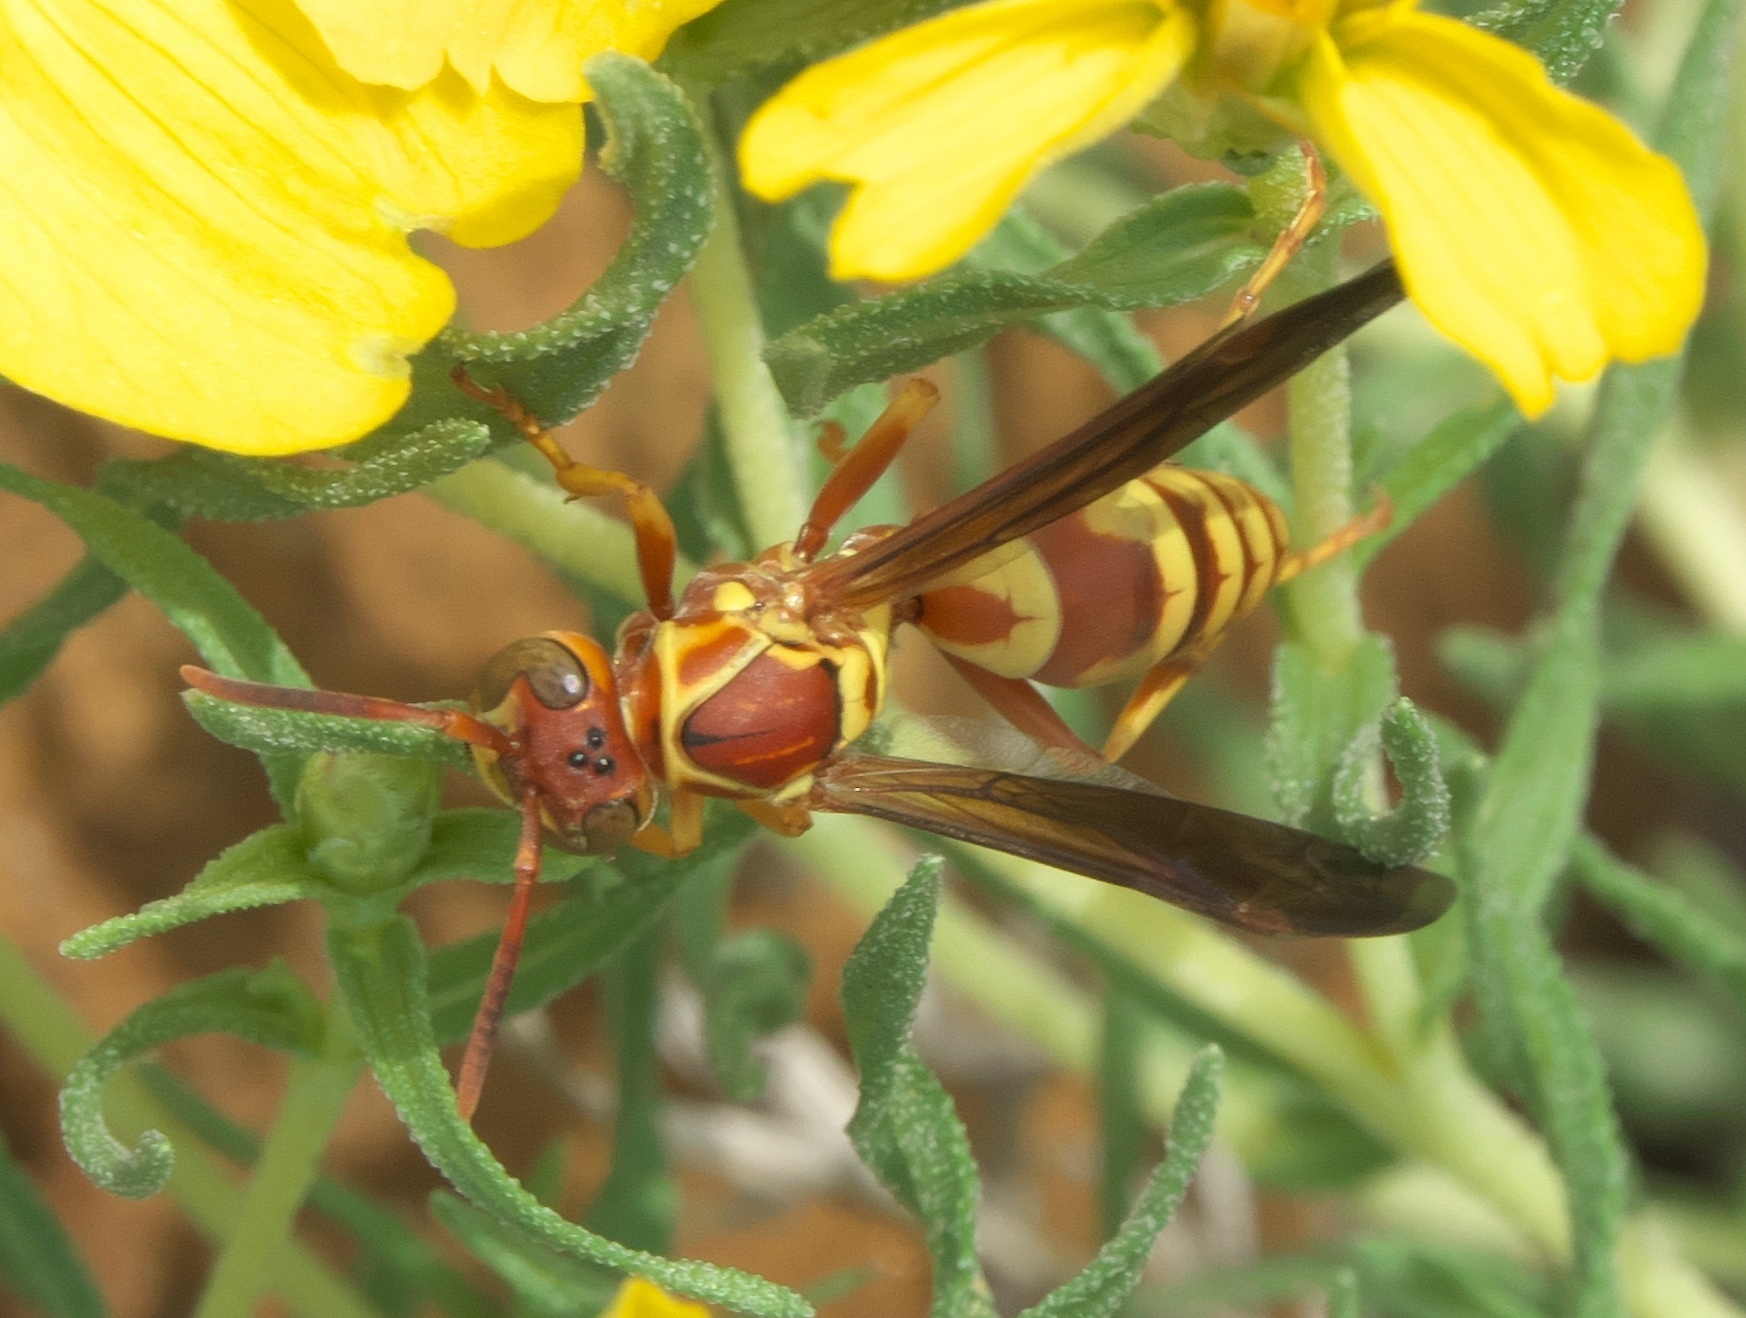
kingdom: Animalia
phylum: Arthropoda
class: Insecta
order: Hymenoptera
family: Eumenidae
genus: Polistes
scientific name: Polistes dorsalis
